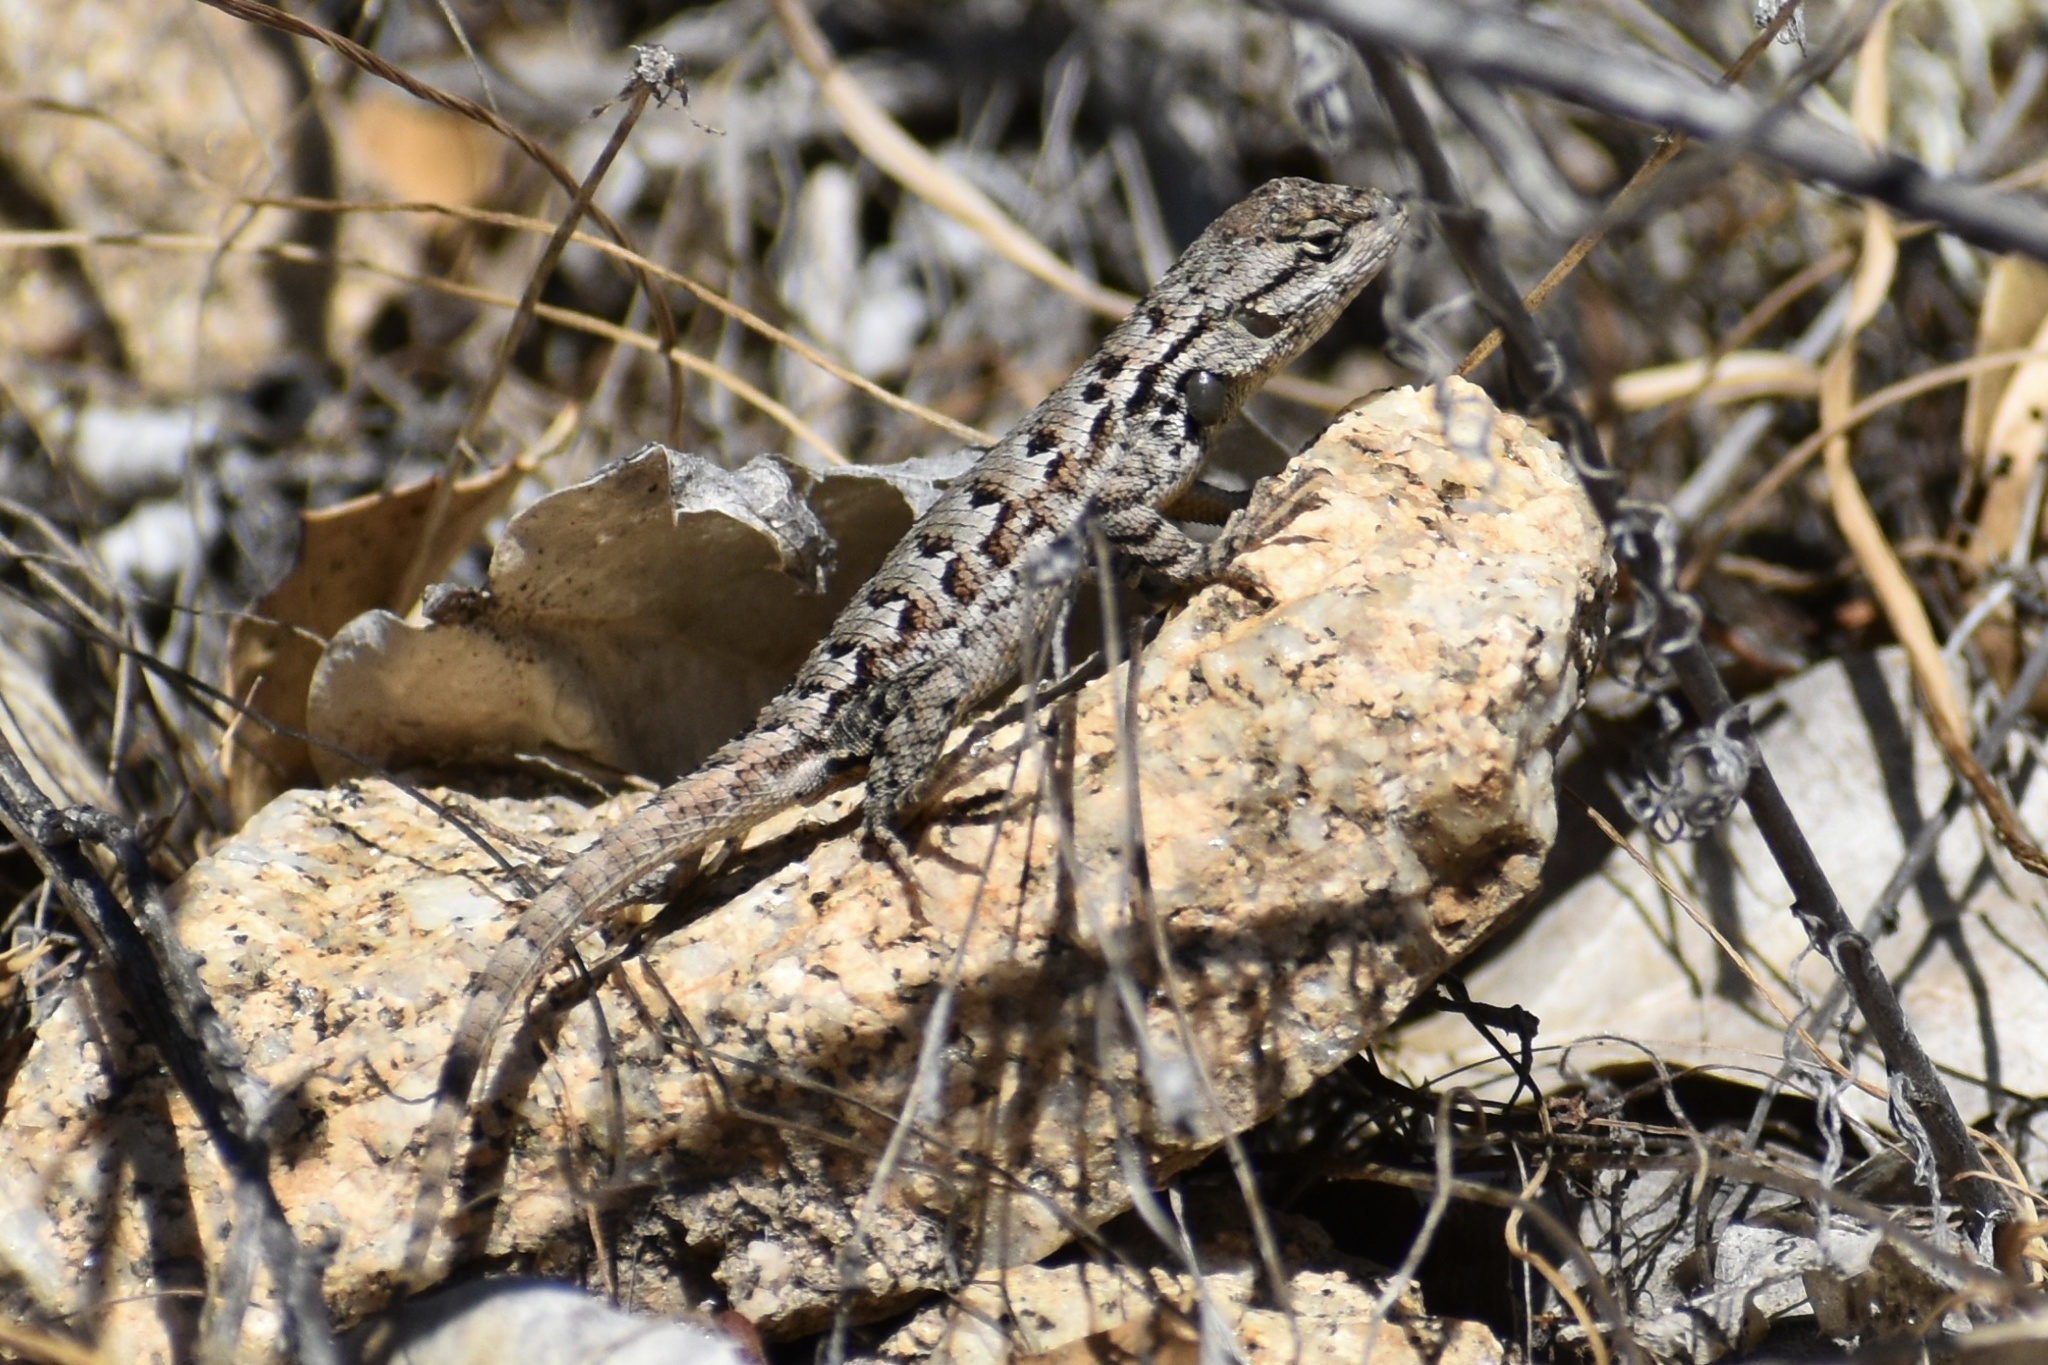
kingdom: Animalia
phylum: Chordata
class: Squamata
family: Phrynosomatidae
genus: Sceloporus
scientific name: Sceloporus occidentalis
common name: Western fence lizard
